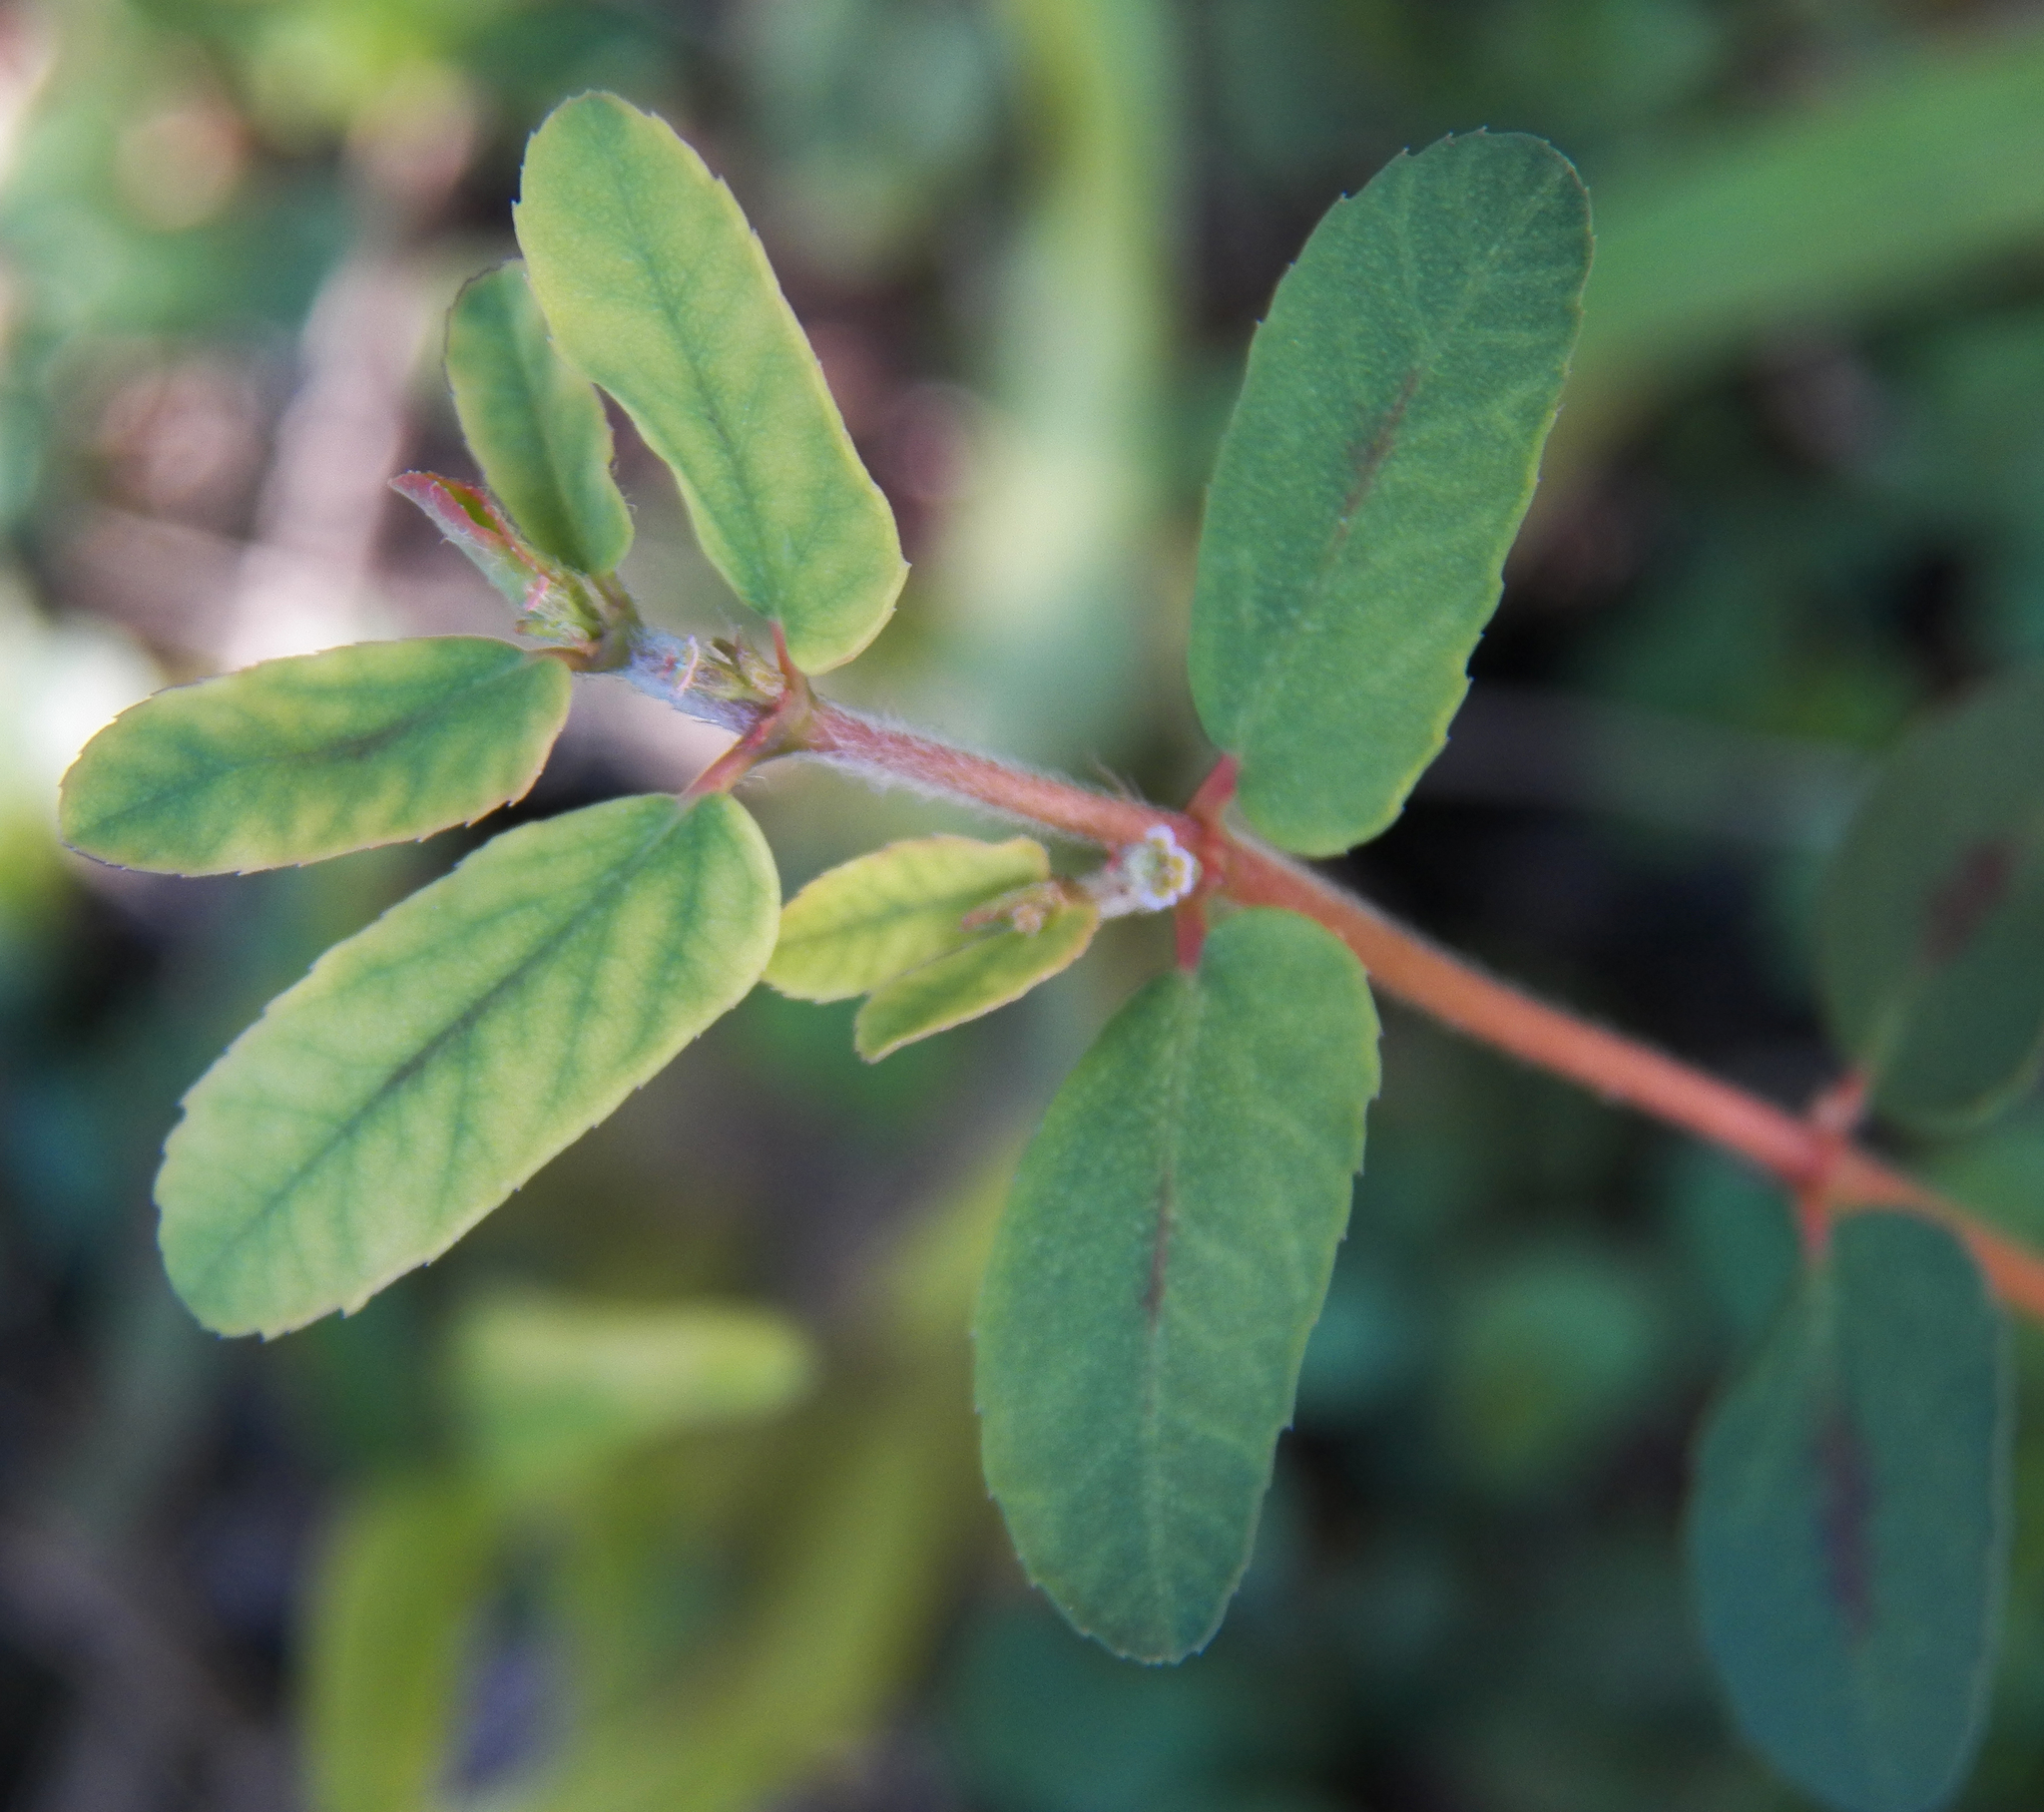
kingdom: Plantae
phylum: Tracheophyta
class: Magnoliopsida
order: Malpighiales
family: Euphorbiaceae
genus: Euphorbia
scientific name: Euphorbia maculata
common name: Spotted spurge
